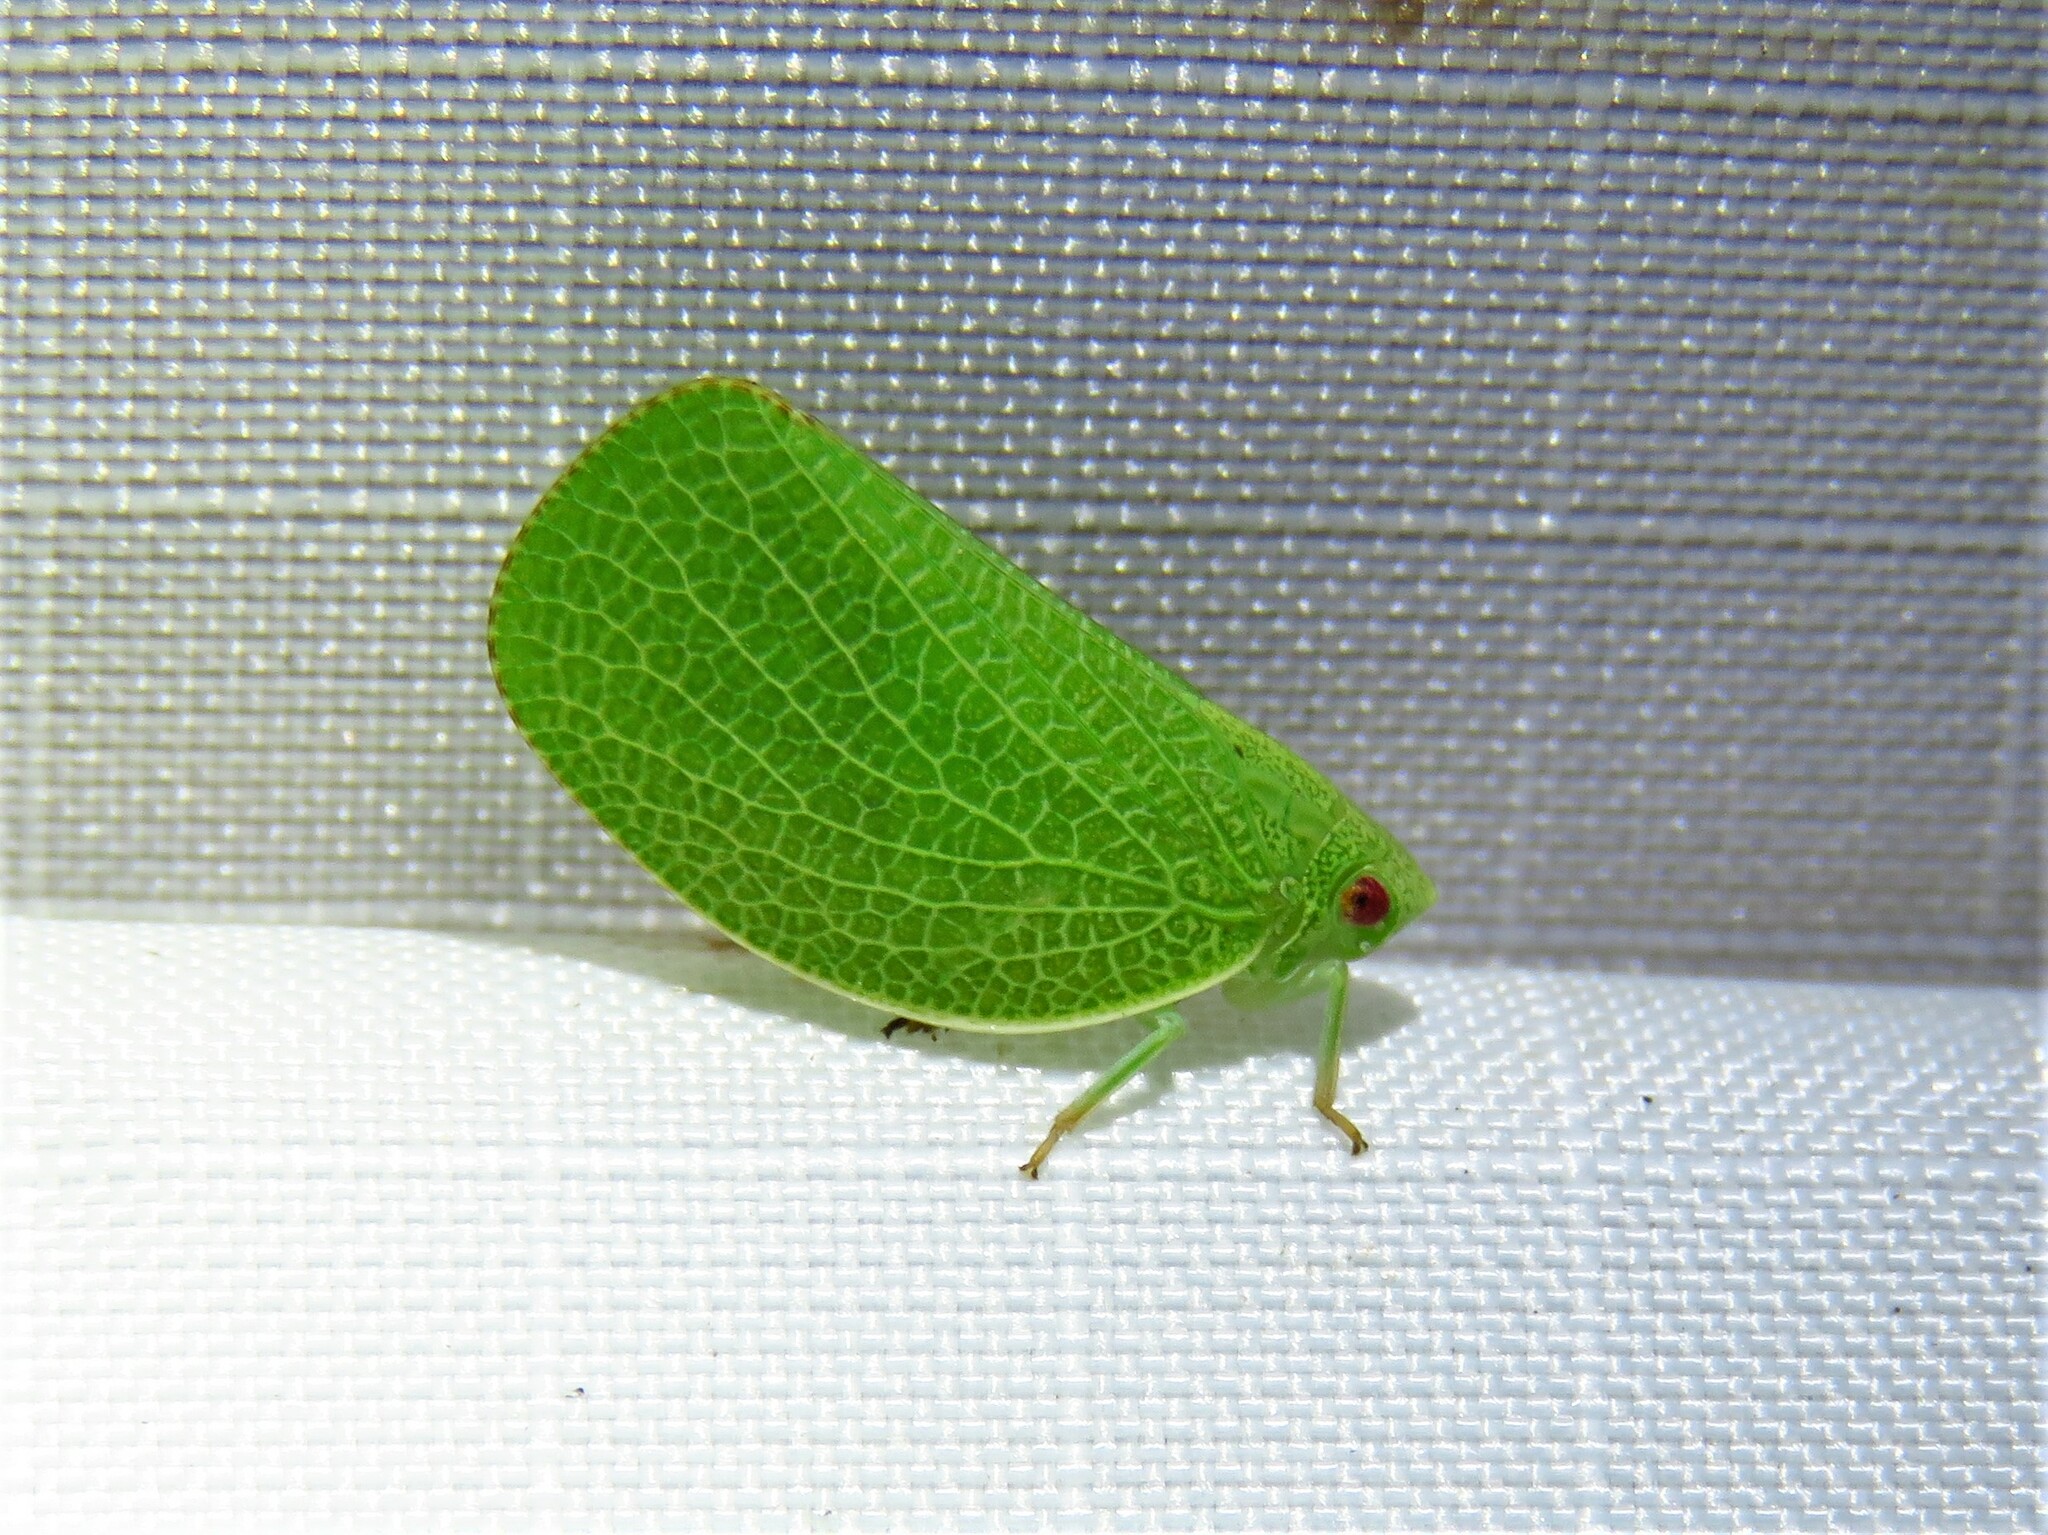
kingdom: Animalia
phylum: Arthropoda
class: Insecta
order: Hemiptera
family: Acanaloniidae
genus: Acanalonia
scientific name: Acanalonia conica
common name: Green cone-headed planthopper
